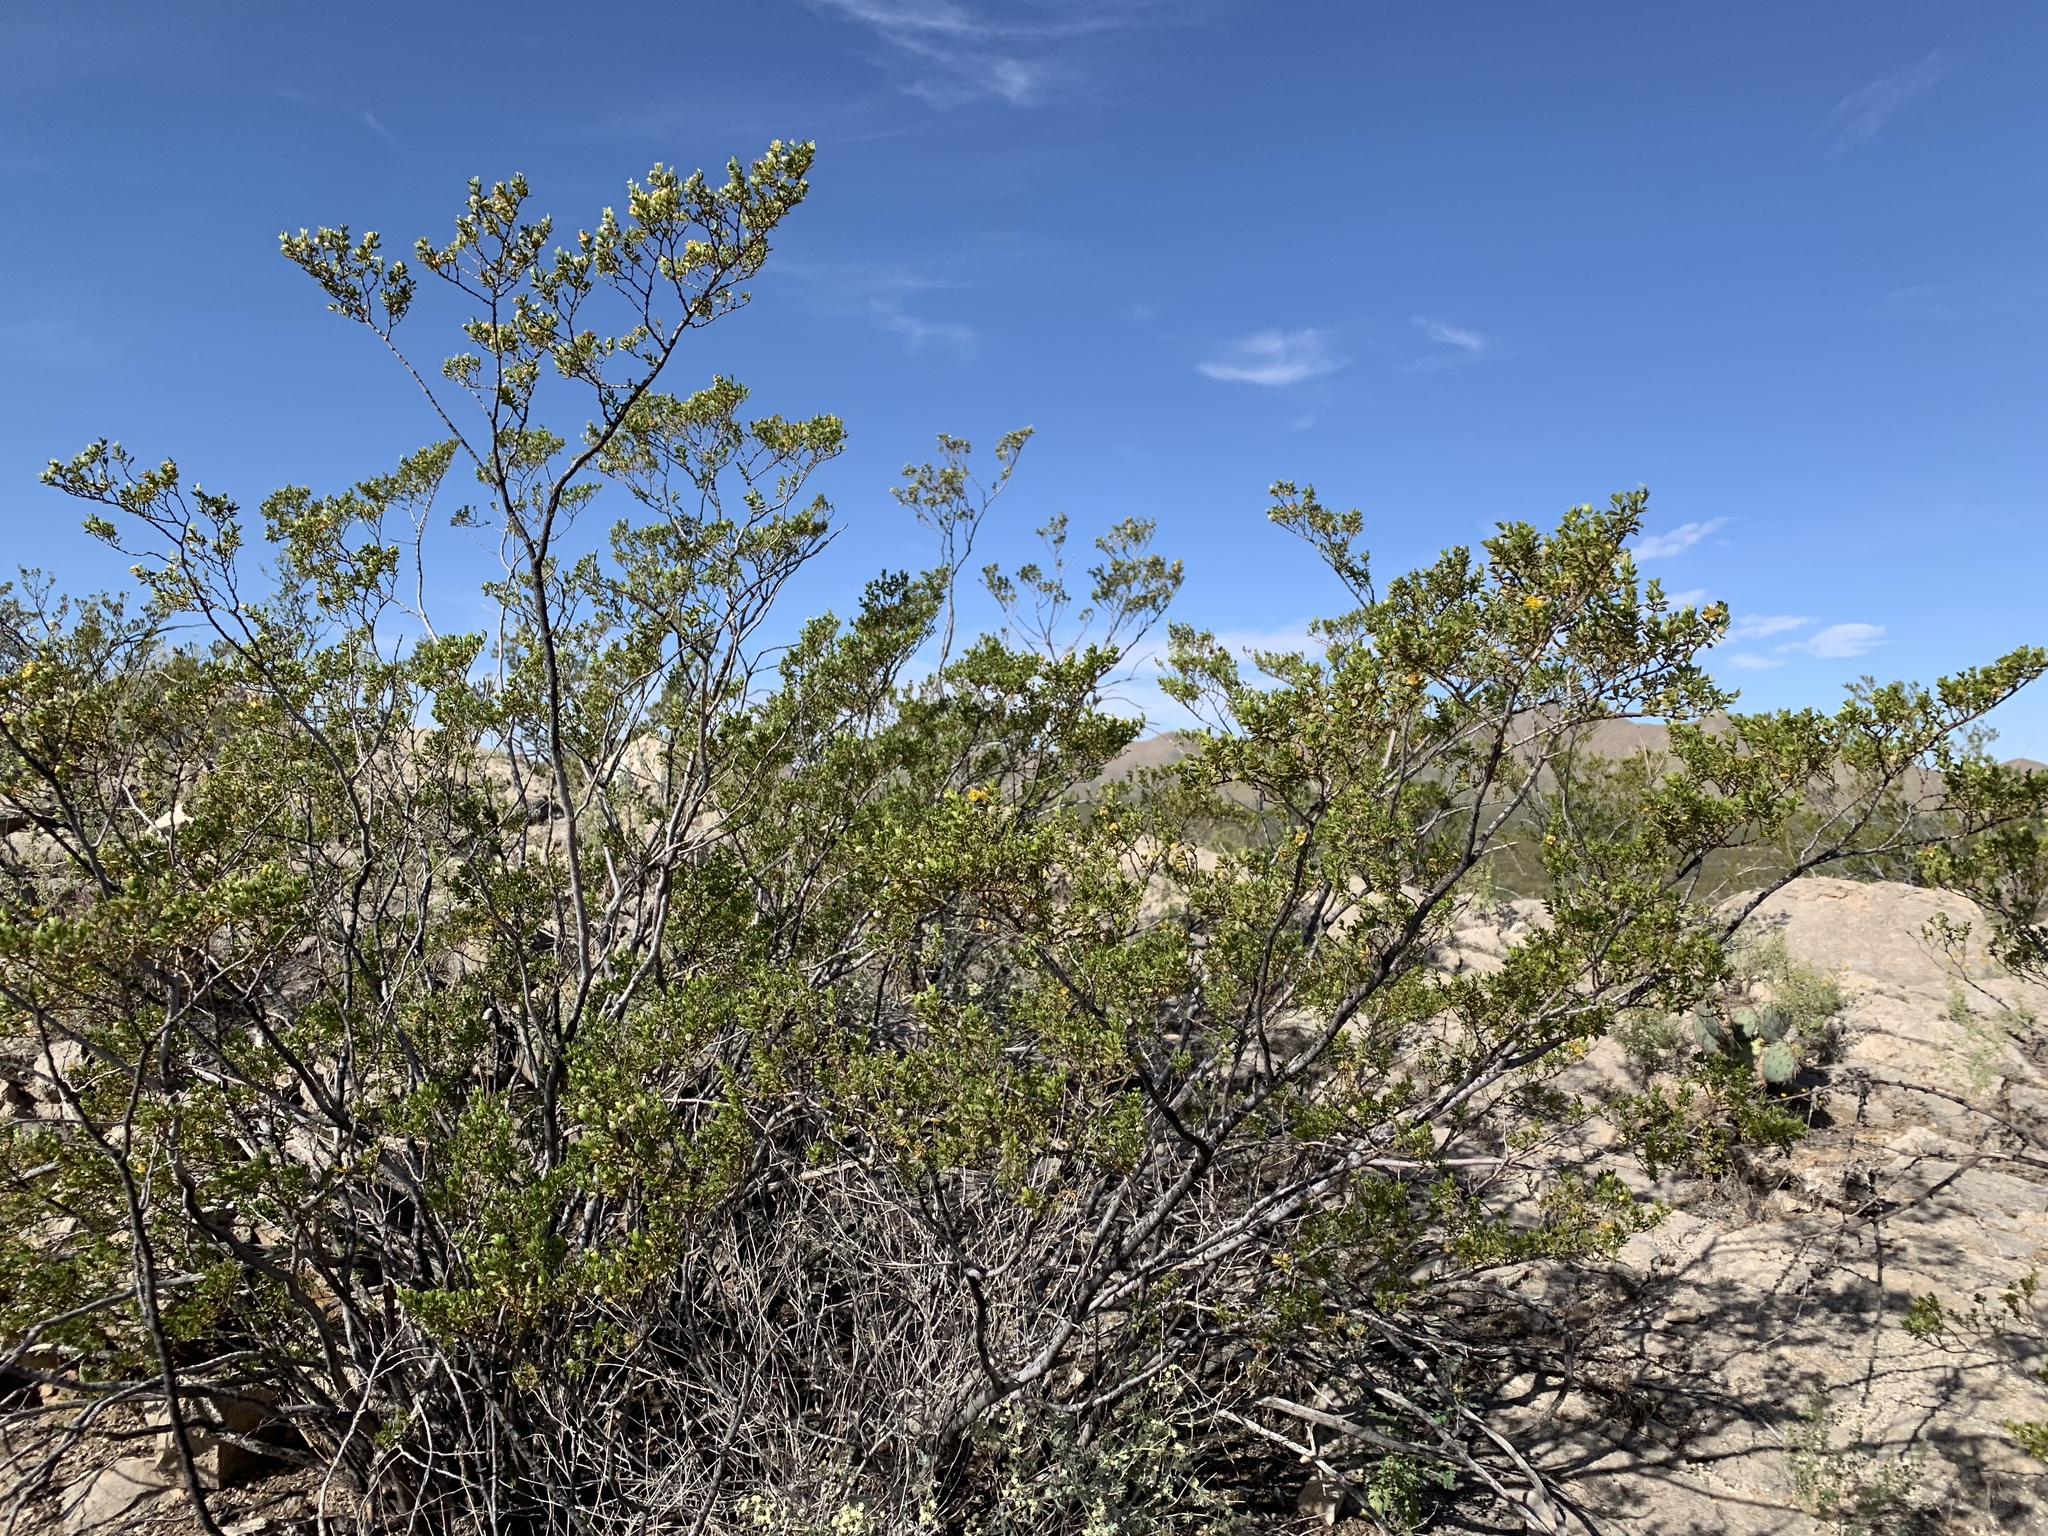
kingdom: Plantae
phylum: Tracheophyta
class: Magnoliopsida
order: Zygophyllales
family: Zygophyllaceae
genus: Larrea
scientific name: Larrea tridentata
